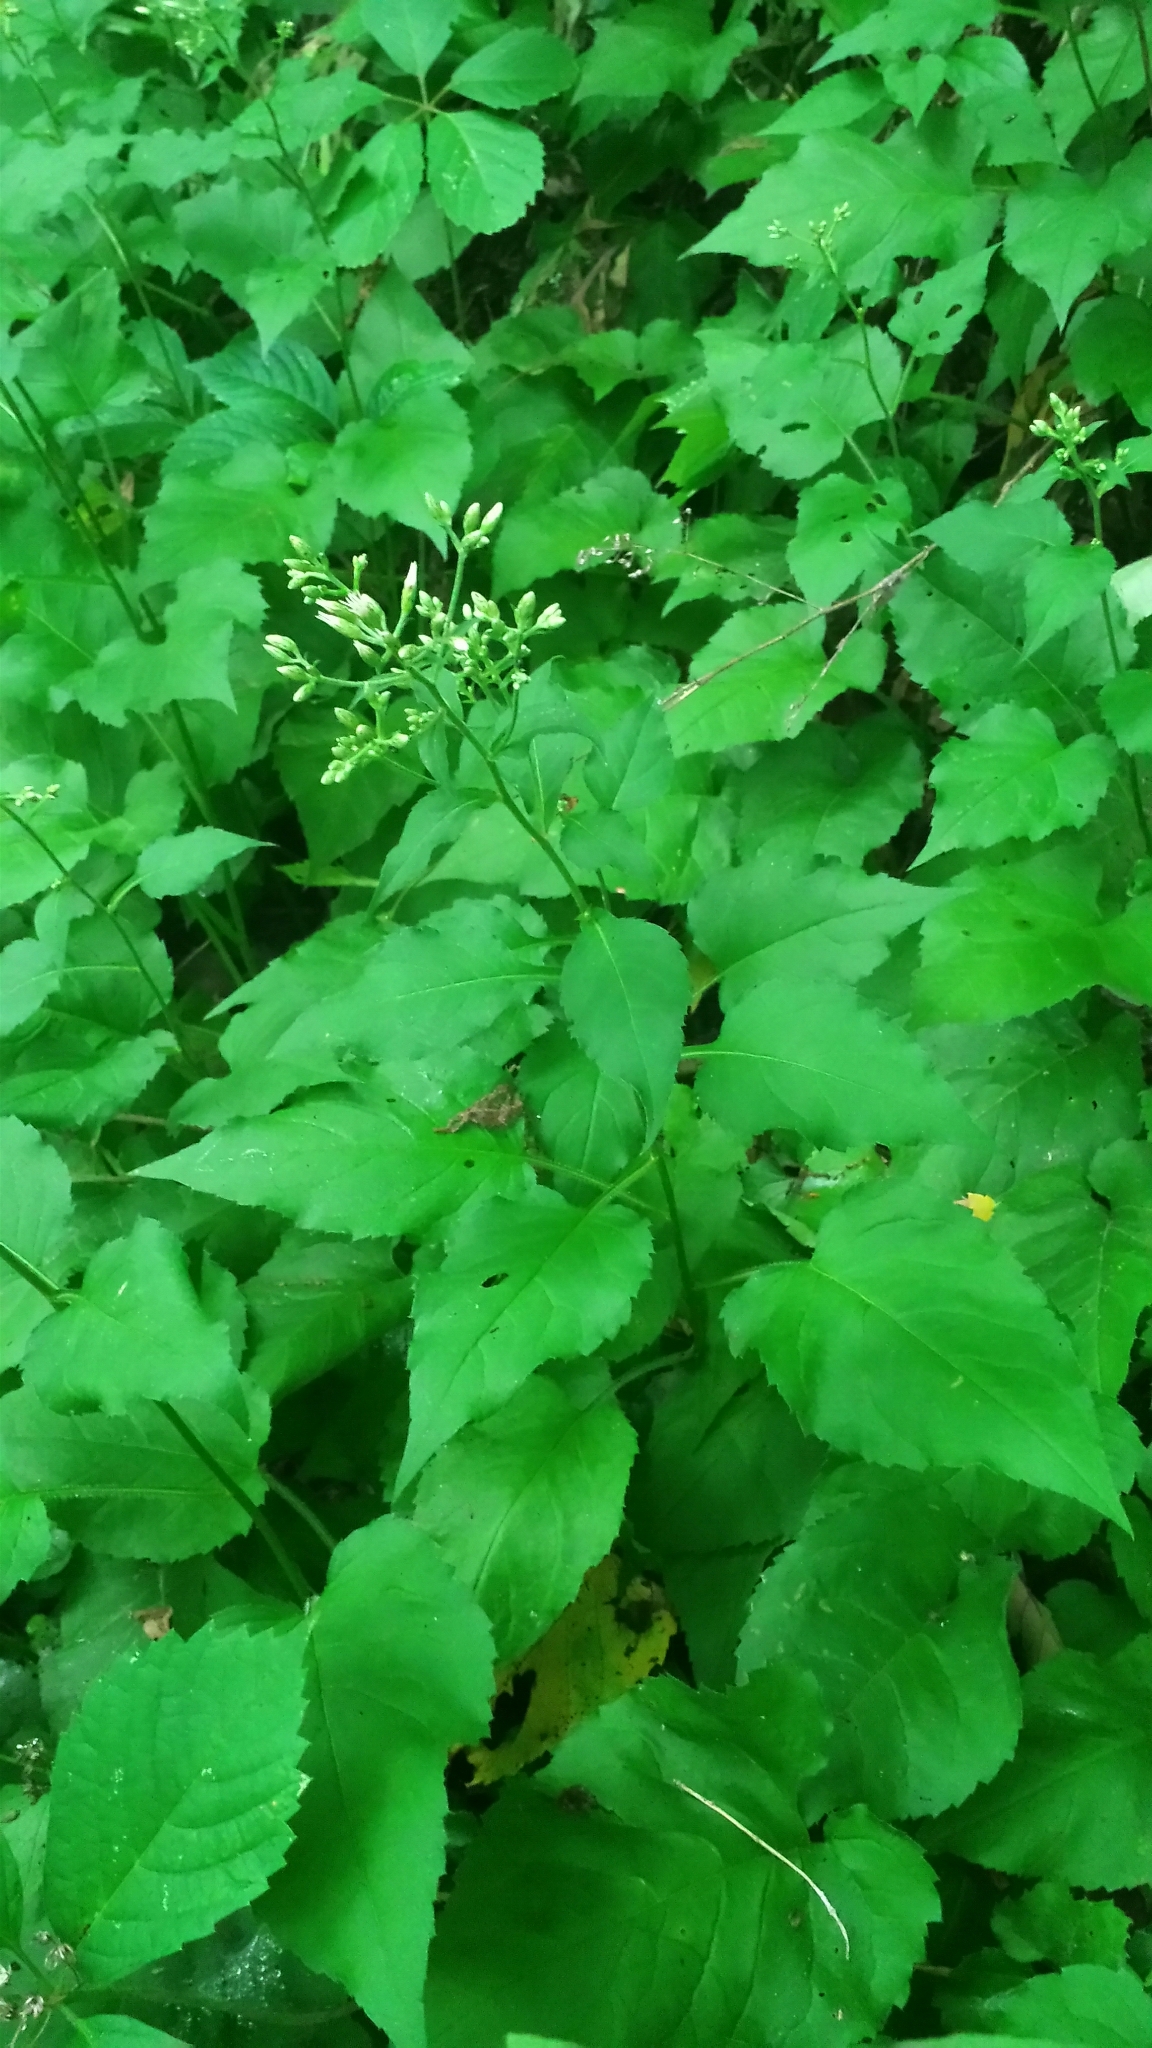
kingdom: Plantae
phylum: Tracheophyta
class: Magnoliopsida
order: Asterales
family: Asteraceae
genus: Eurybia
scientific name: Eurybia macrophylla
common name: Big-leaved aster
